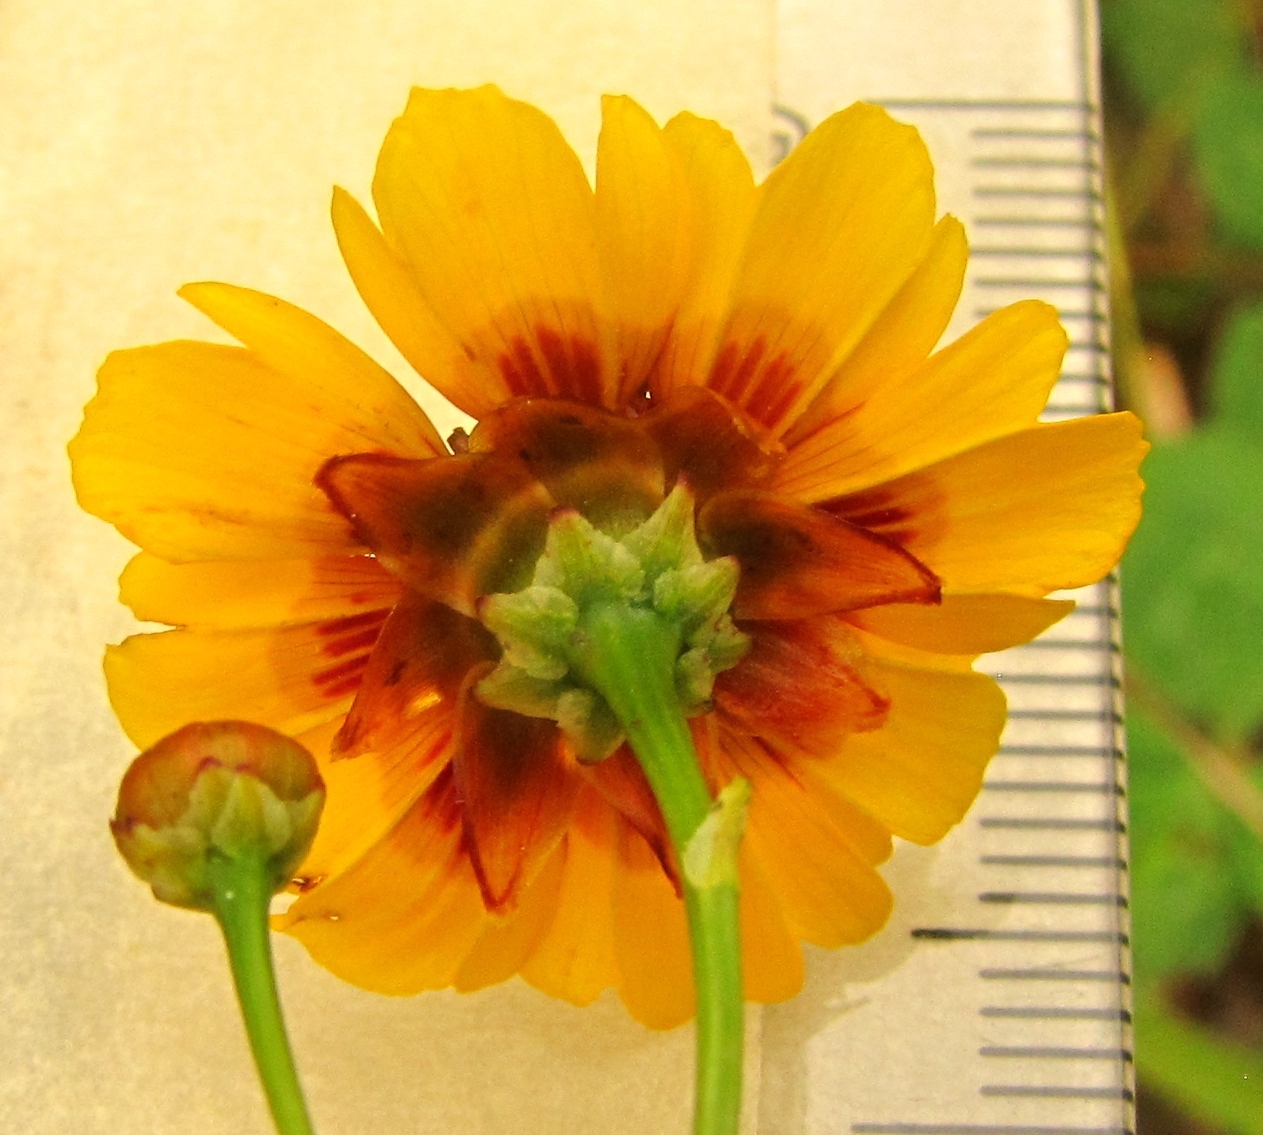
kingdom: Plantae
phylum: Tracheophyta
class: Magnoliopsida
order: Asterales
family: Asteraceae
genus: Coreopsis
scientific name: Coreopsis tinctoria
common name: Garden tickseed
